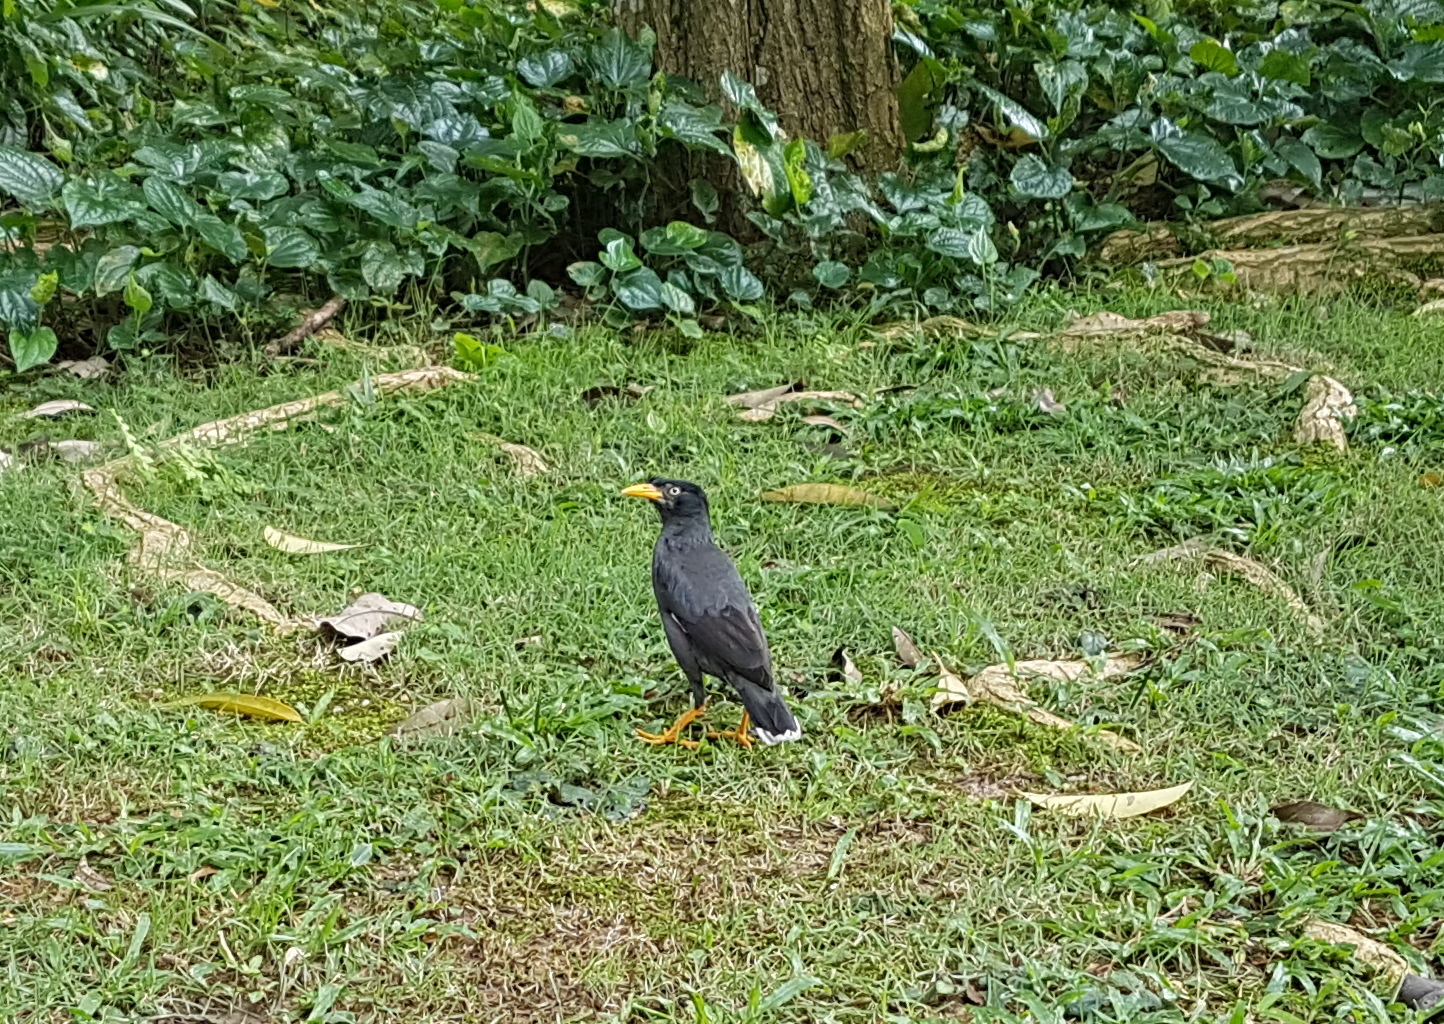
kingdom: Animalia
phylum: Chordata
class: Aves
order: Passeriformes
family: Sturnidae
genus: Acridotheres
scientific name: Acridotheres javanicus
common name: Javan myna
